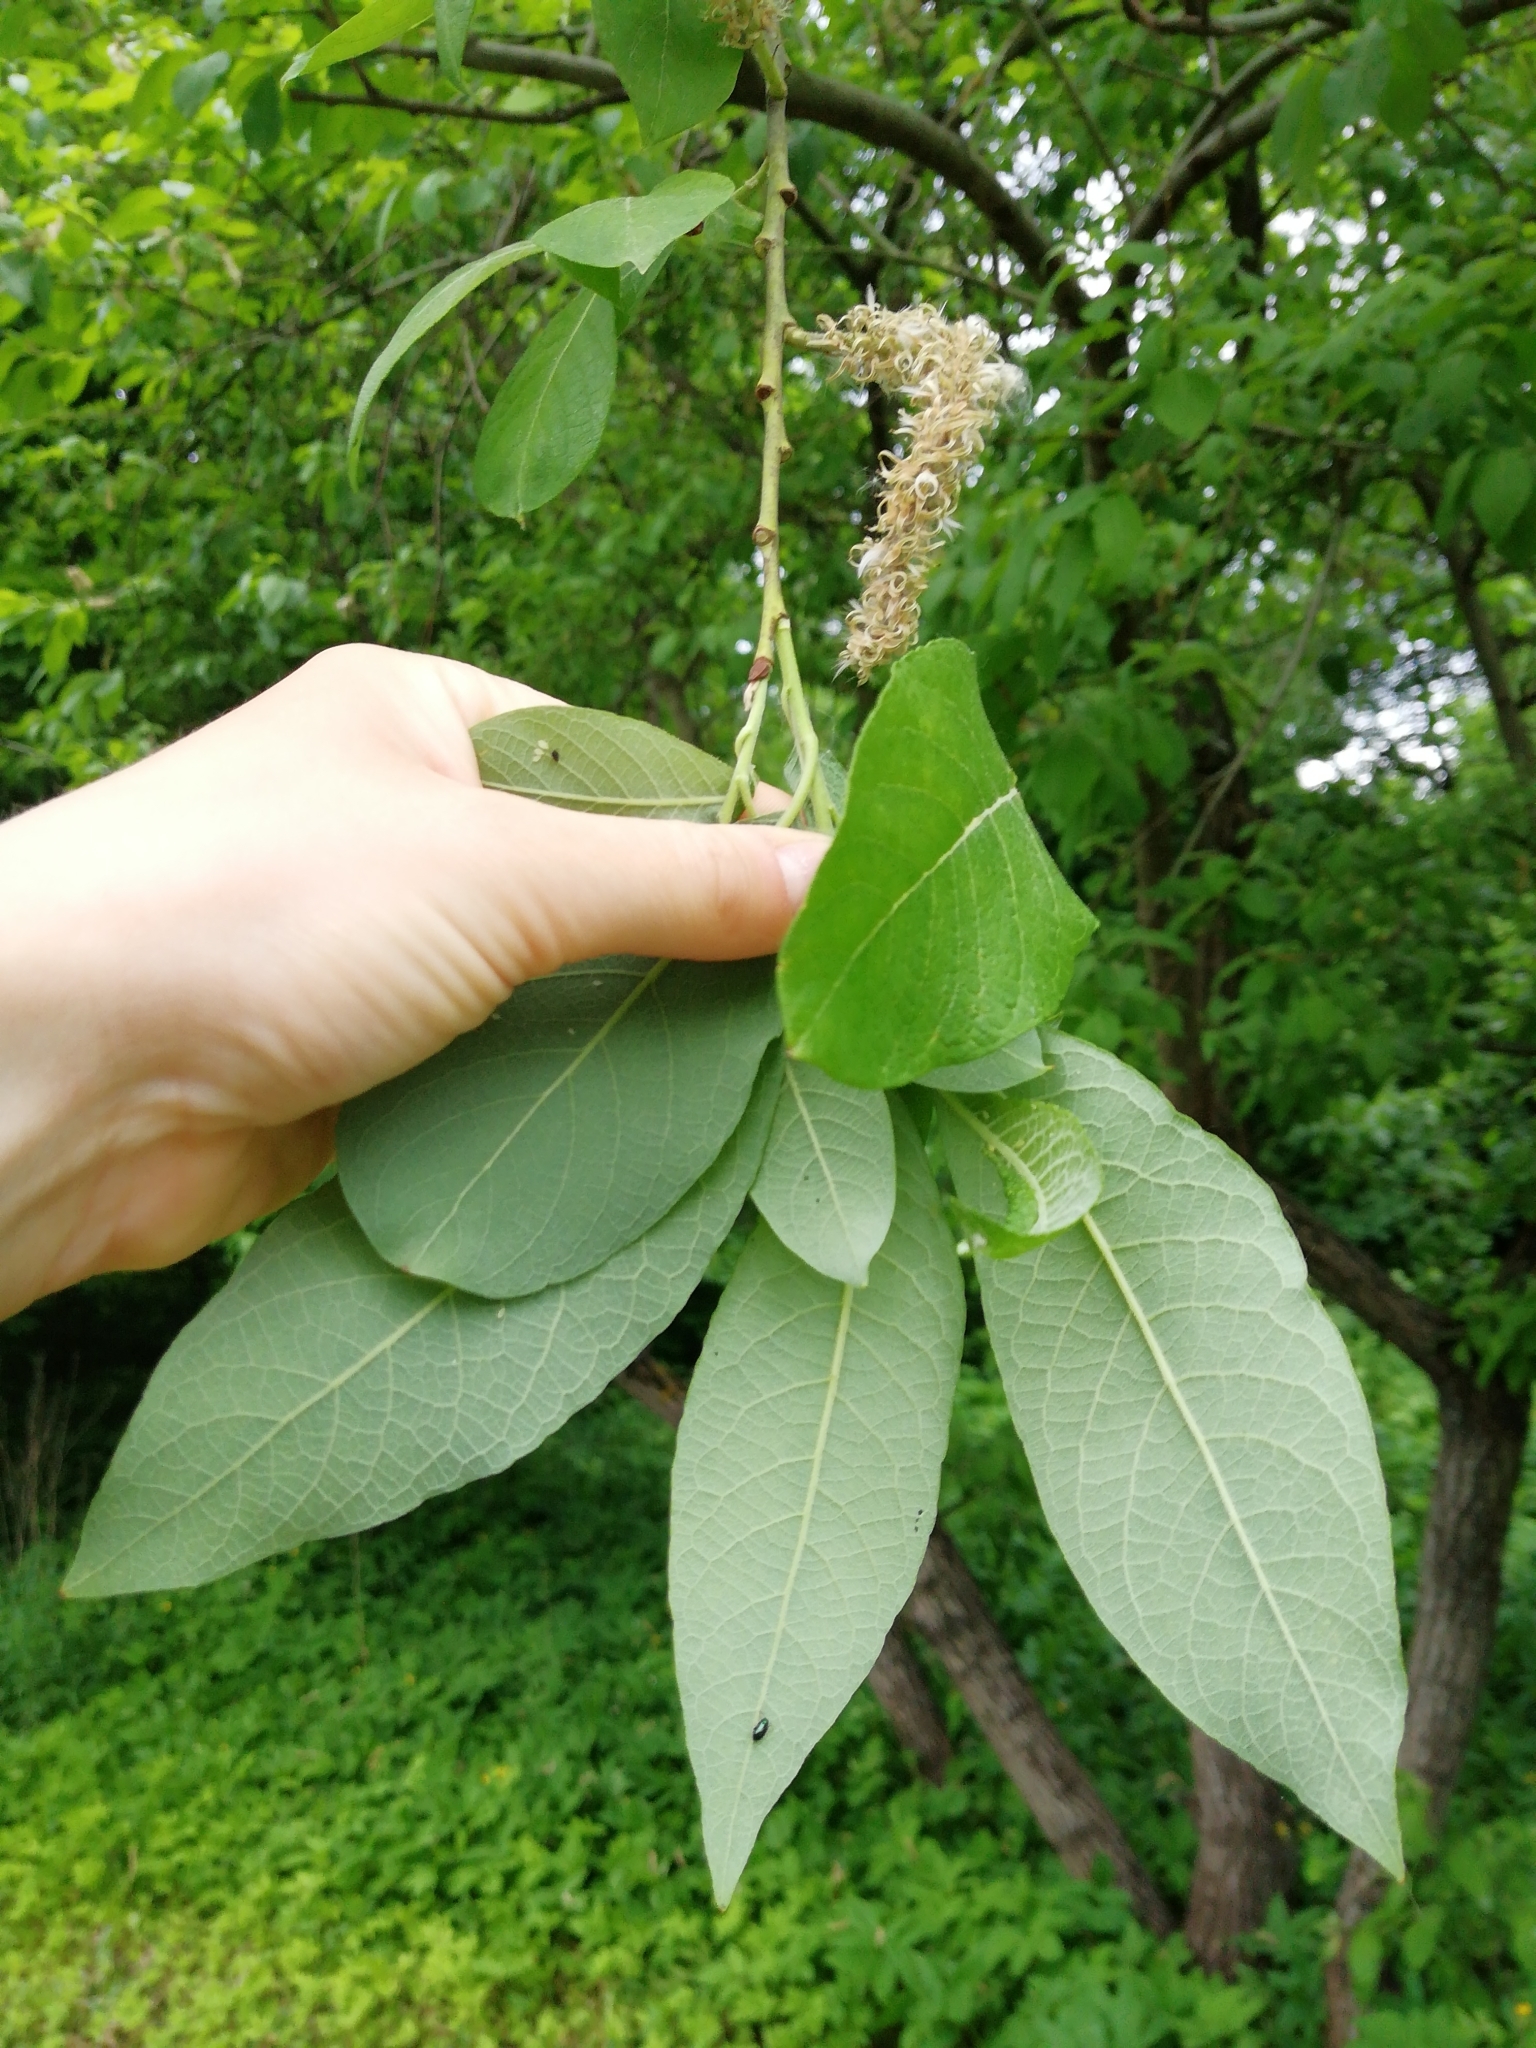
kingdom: Plantae
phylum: Tracheophyta
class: Magnoliopsida
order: Malpighiales
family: Salicaceae
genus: Salix
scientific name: Salix caprea
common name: Goat willow
